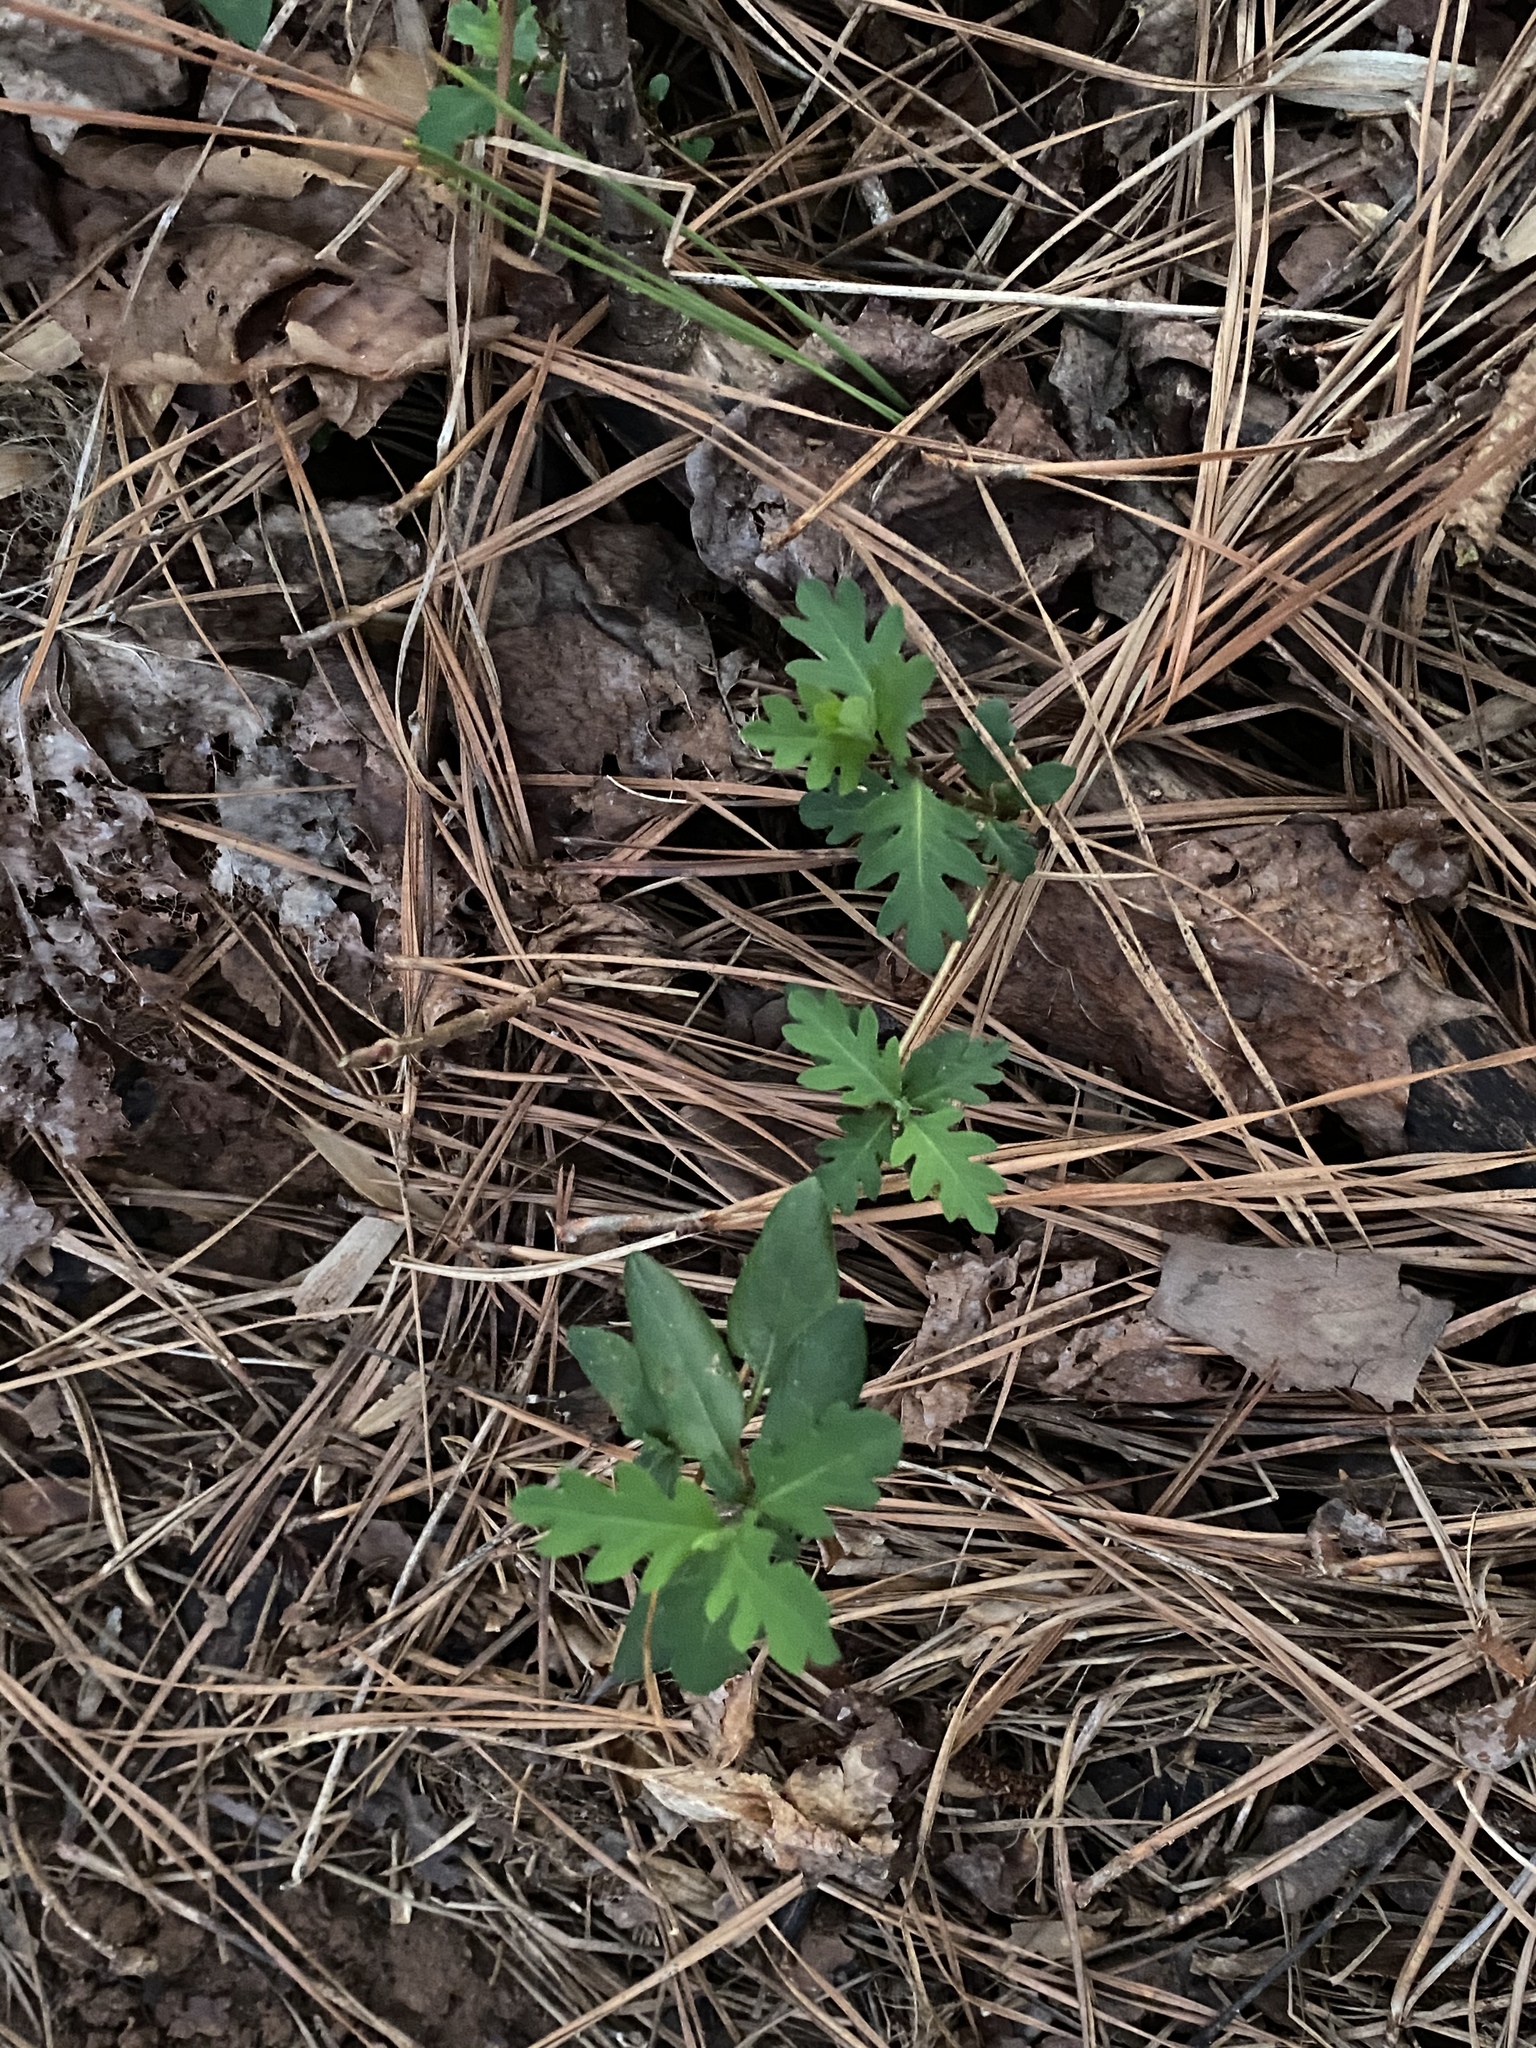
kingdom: Plantae
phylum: Tracheophyta
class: Magnoliopsida
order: Dipsacales
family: Caprifoliaceae
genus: Lonicera
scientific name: Lonicera japonica
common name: Japanese honeysuckle
